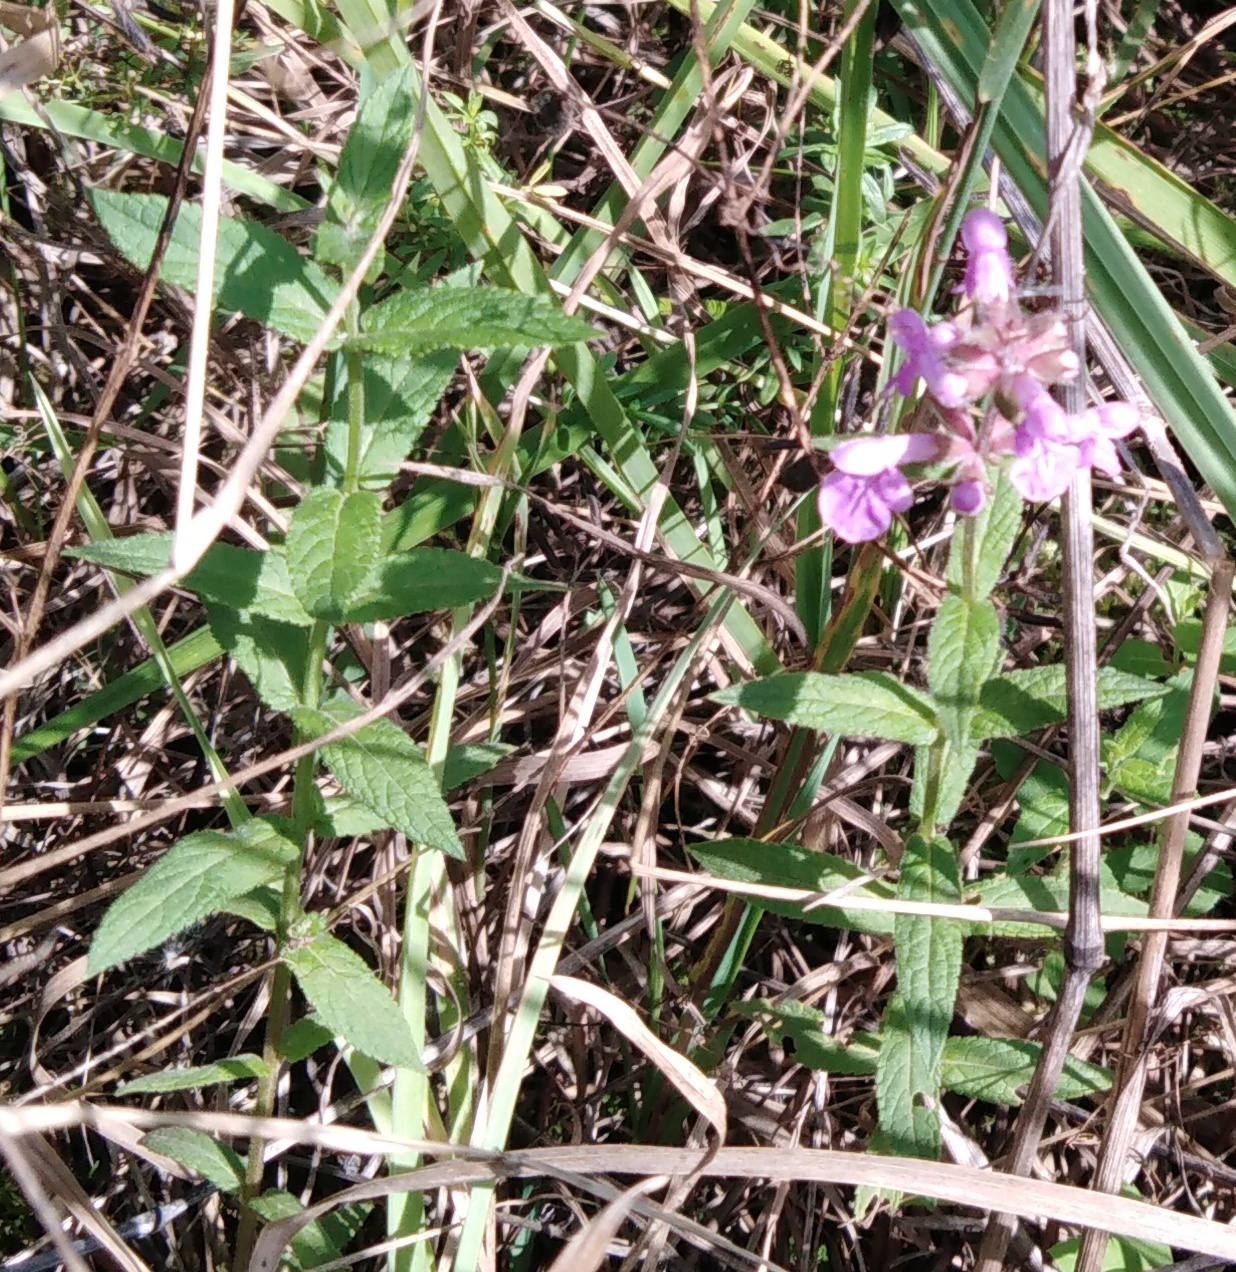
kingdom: Plantae
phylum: Tracheophyta
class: Magnoliopsida
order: Lamiales
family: Lamiaceae
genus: Stachys
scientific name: Stachys palustris
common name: Marsh woundwort
